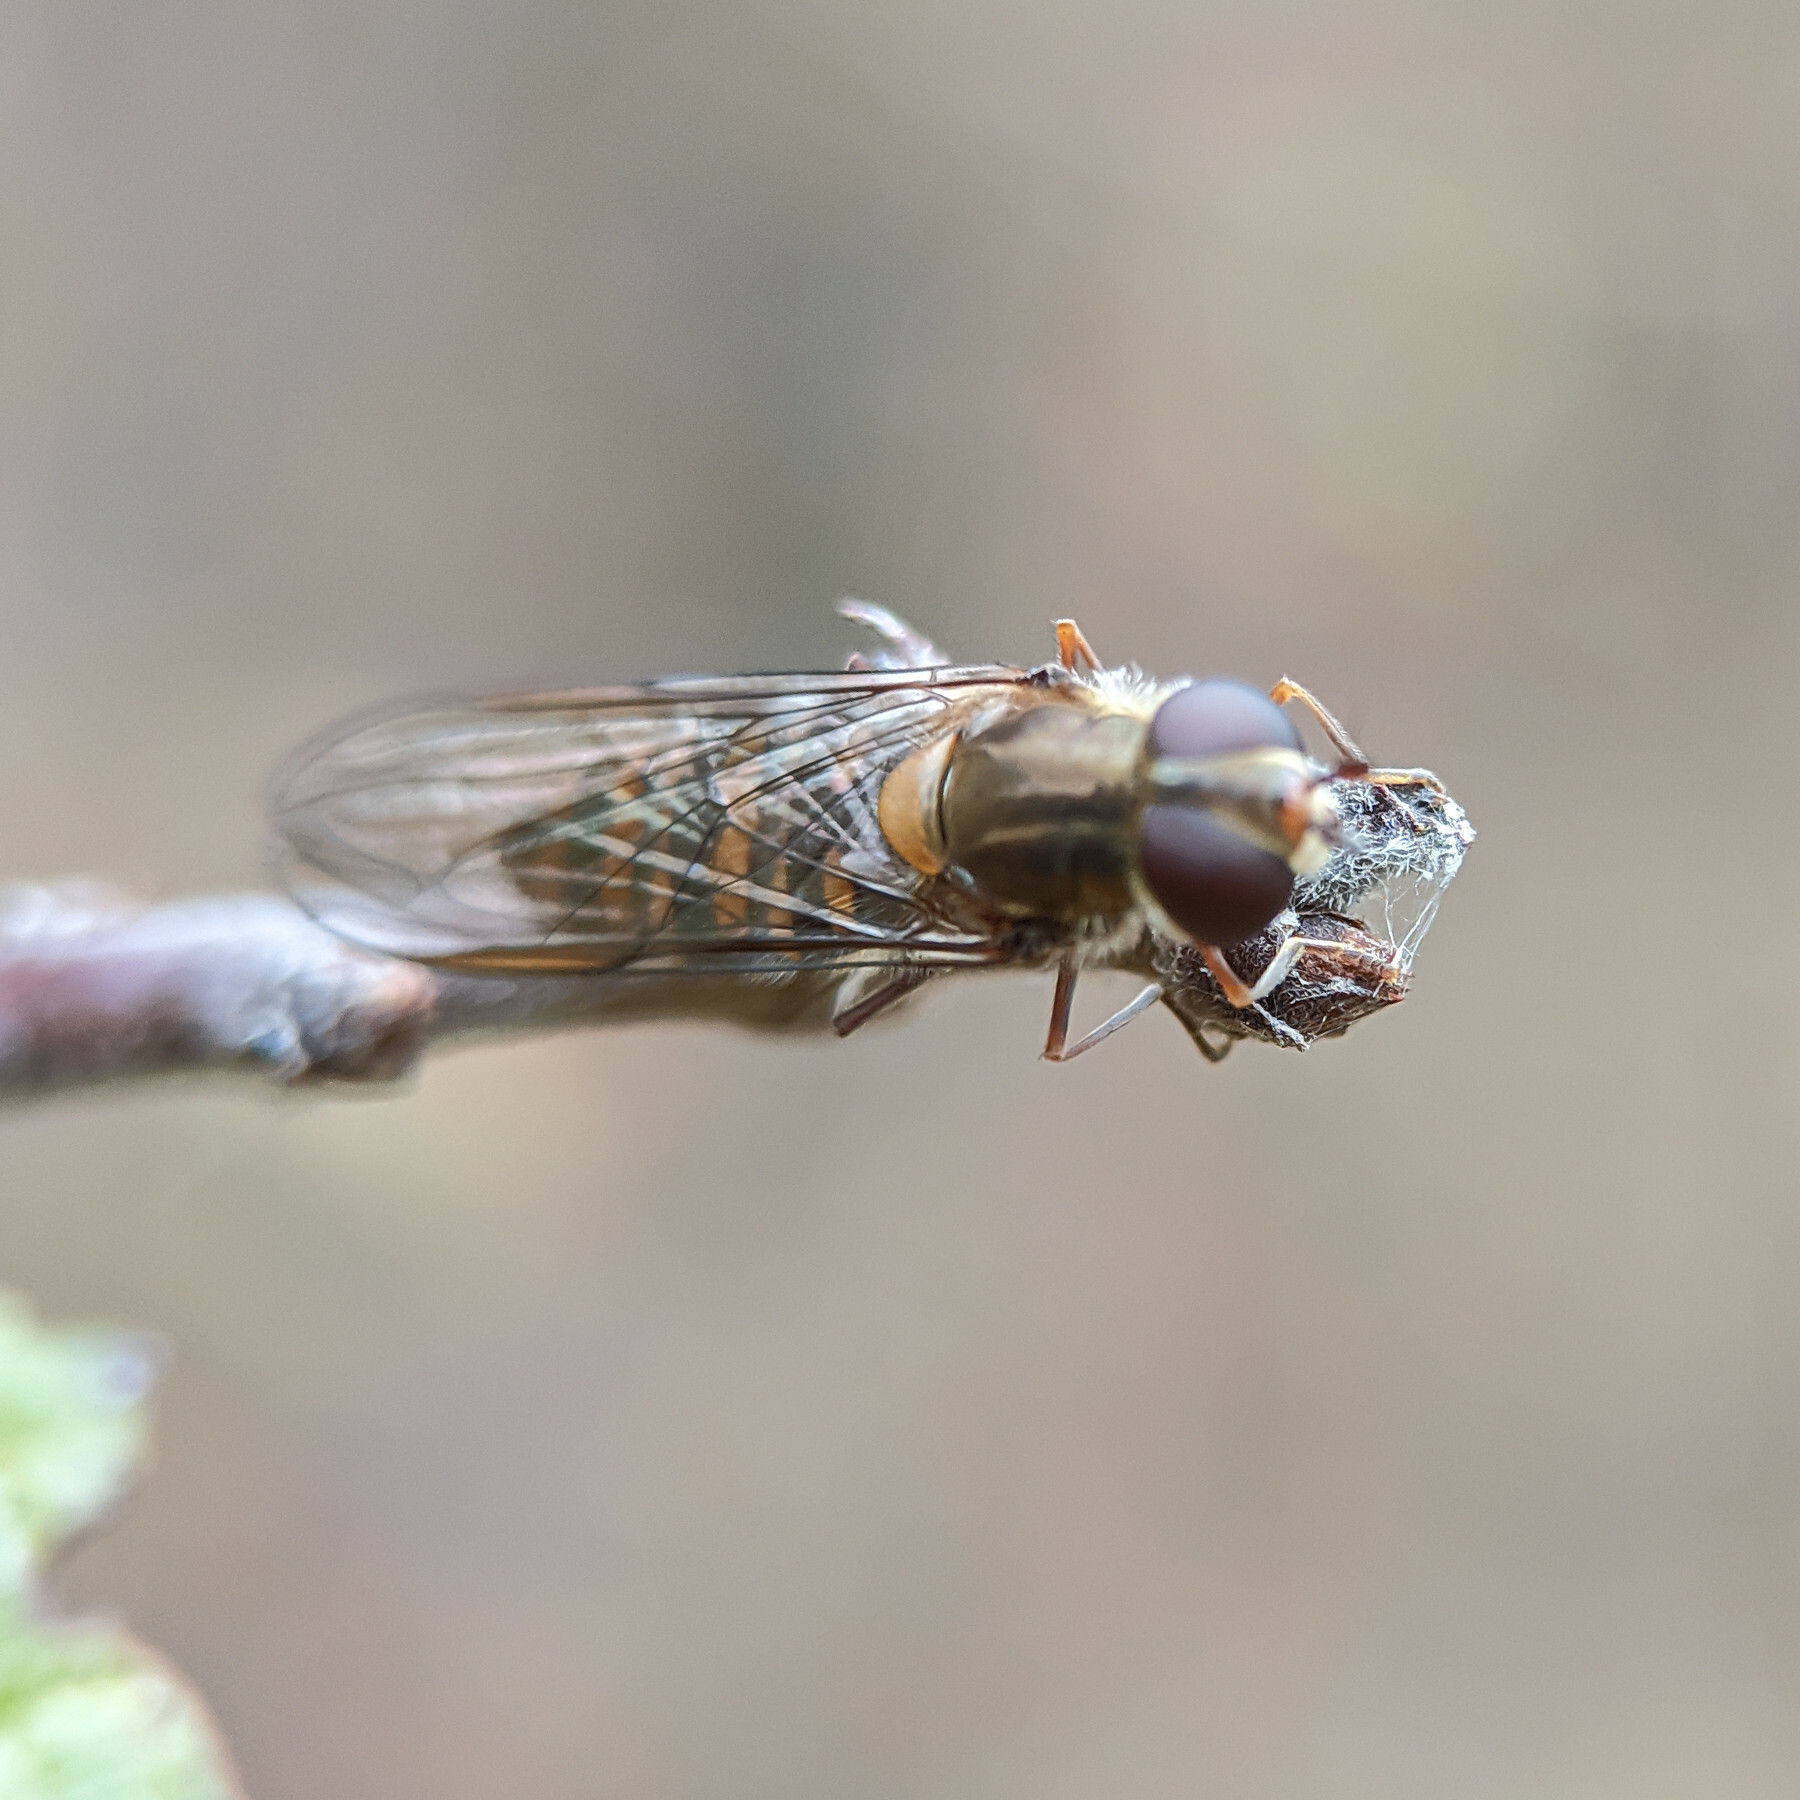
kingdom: Animalia
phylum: Arthropoda
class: Insecta
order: Diptera
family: Syrphidae
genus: Episyrphus
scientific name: Episyrphus balteatus
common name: Marmalade hoverfly
